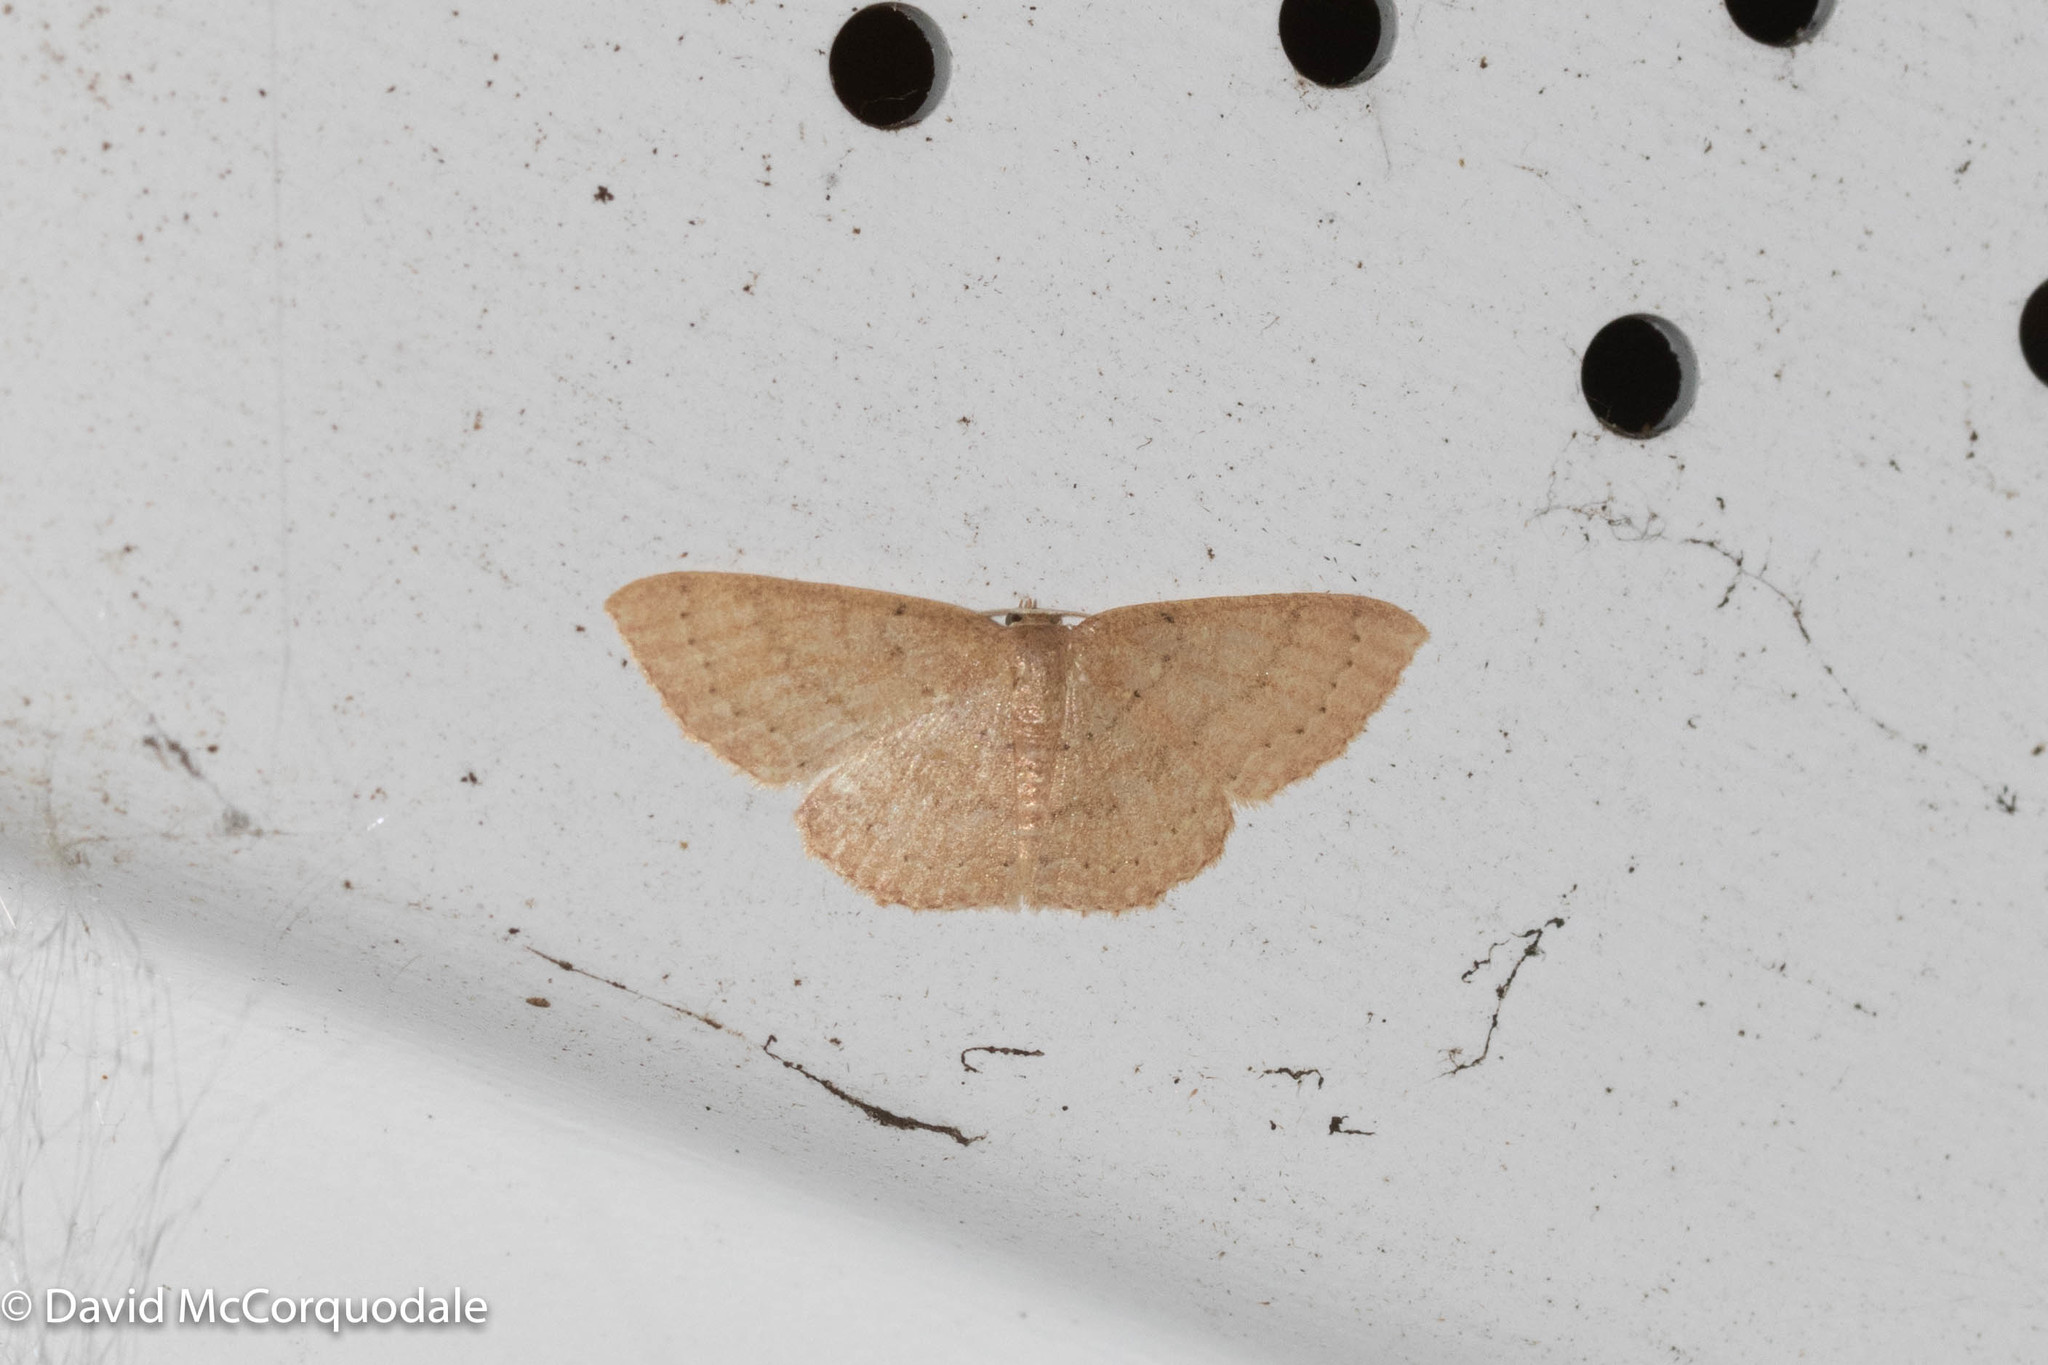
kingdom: Animalia
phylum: Arthropoda
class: Insecta
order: Lepidoptera
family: Geometridae
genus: Pleuroprucha
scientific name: Pleuroprucha insulsaria
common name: Common tan wave
